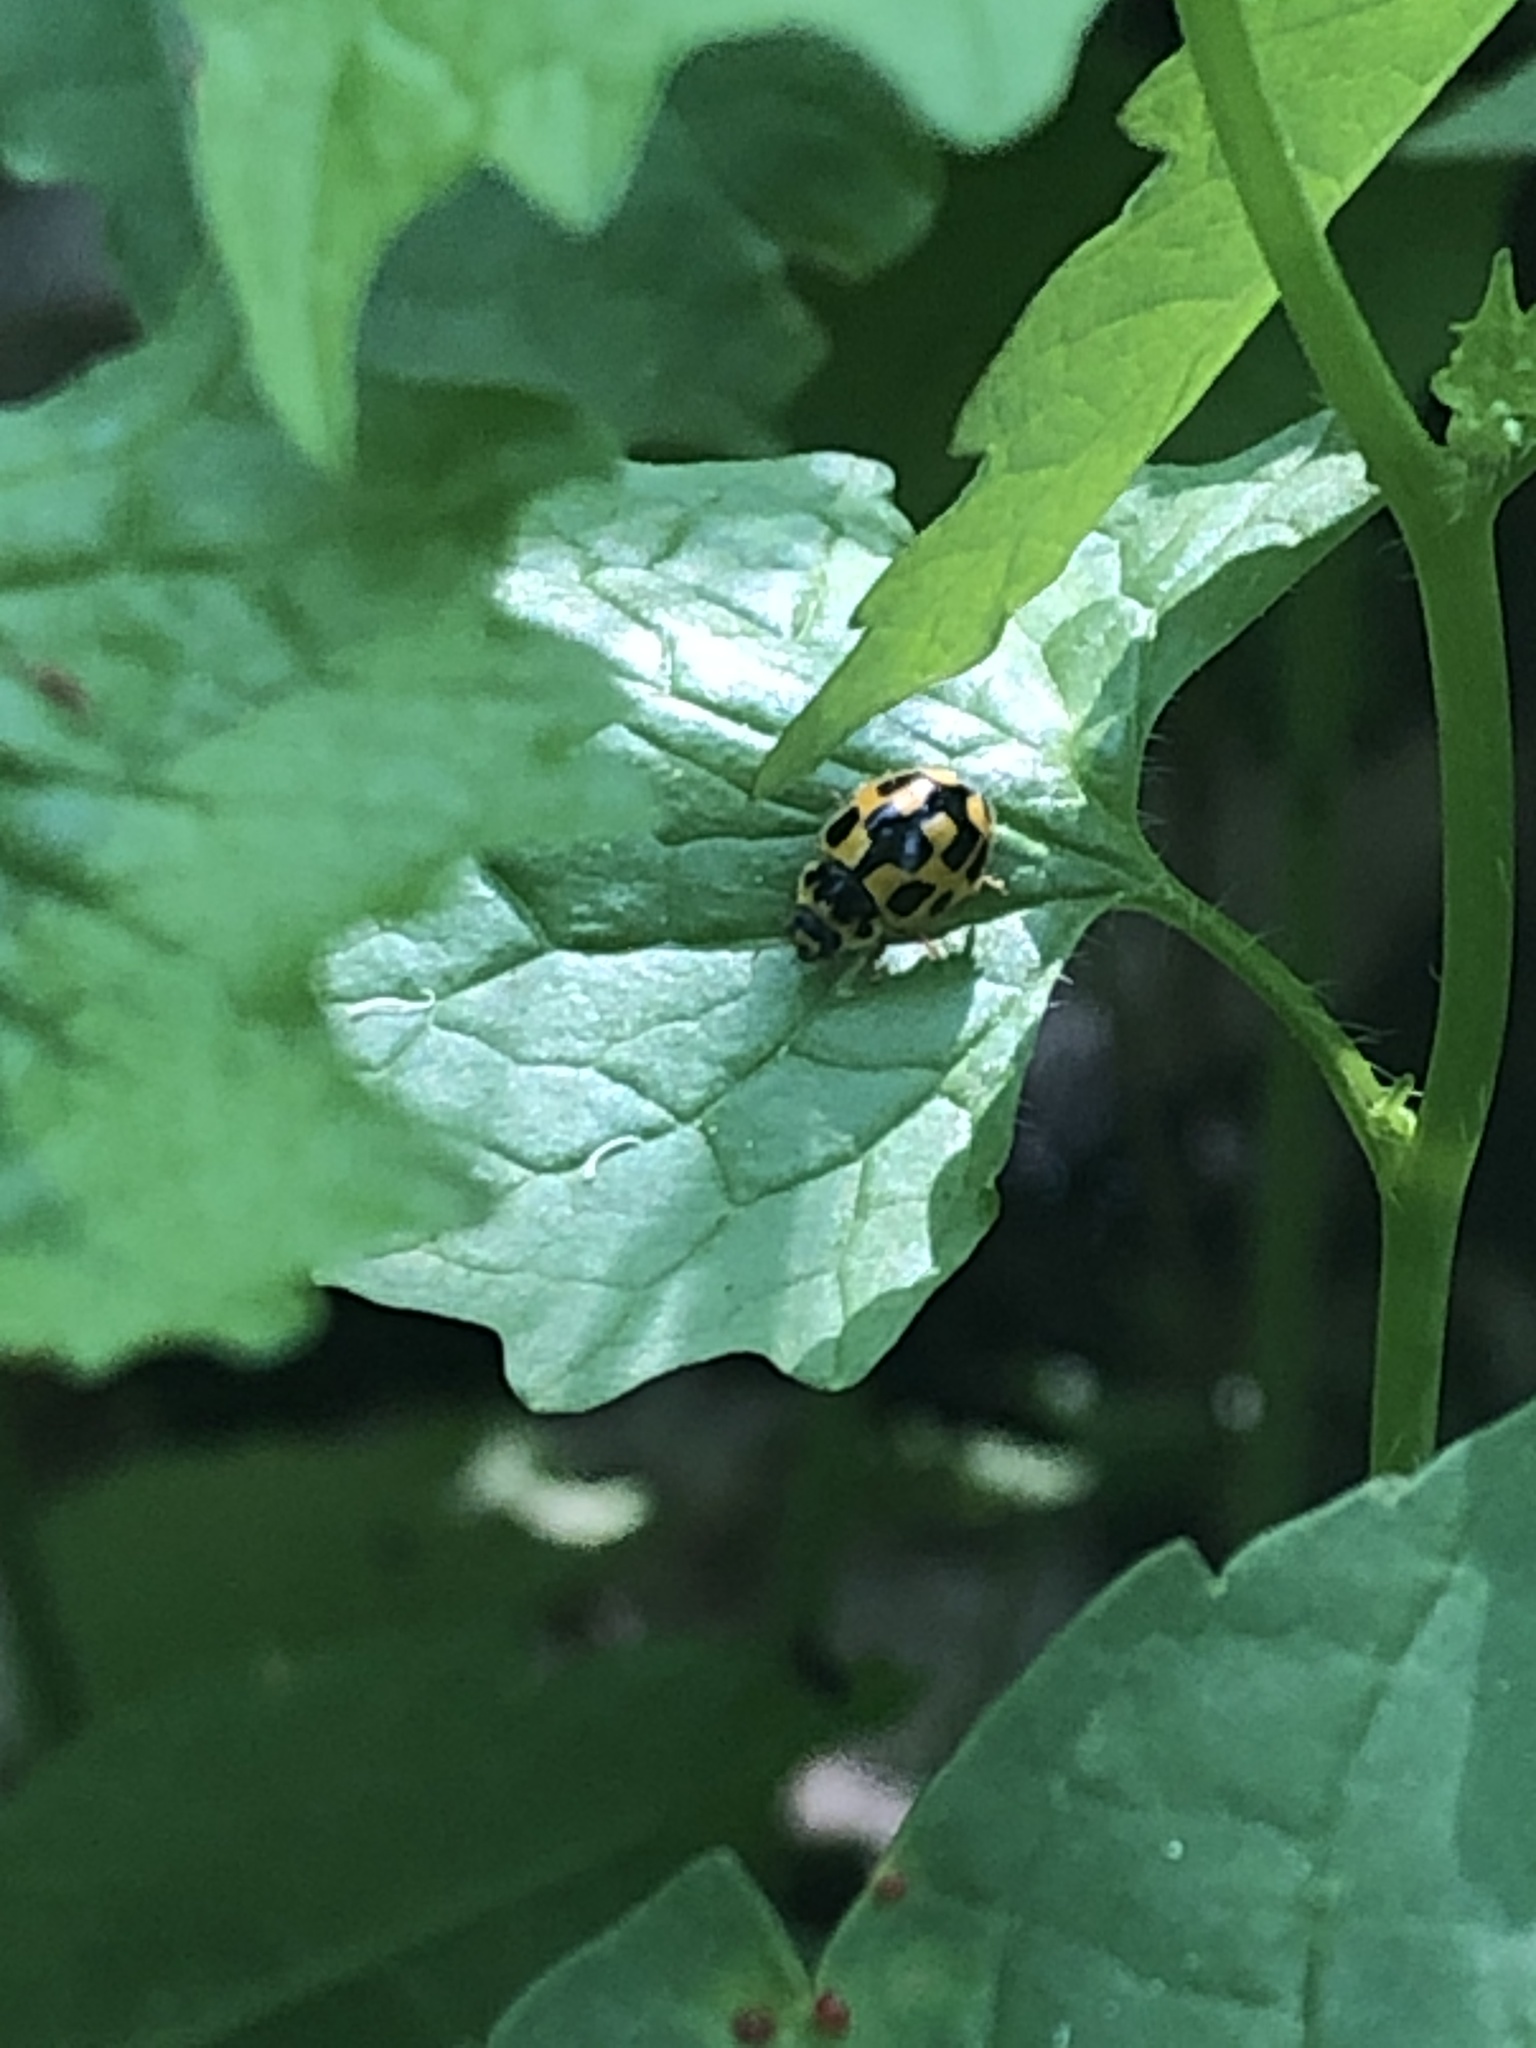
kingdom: Animalia
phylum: Arthropoda
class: Insecta
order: Coleoptera
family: Coccinellidae
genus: Propylaea
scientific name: Propylaea quatuordecimpunctata
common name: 14-spotted ladybird beetle
